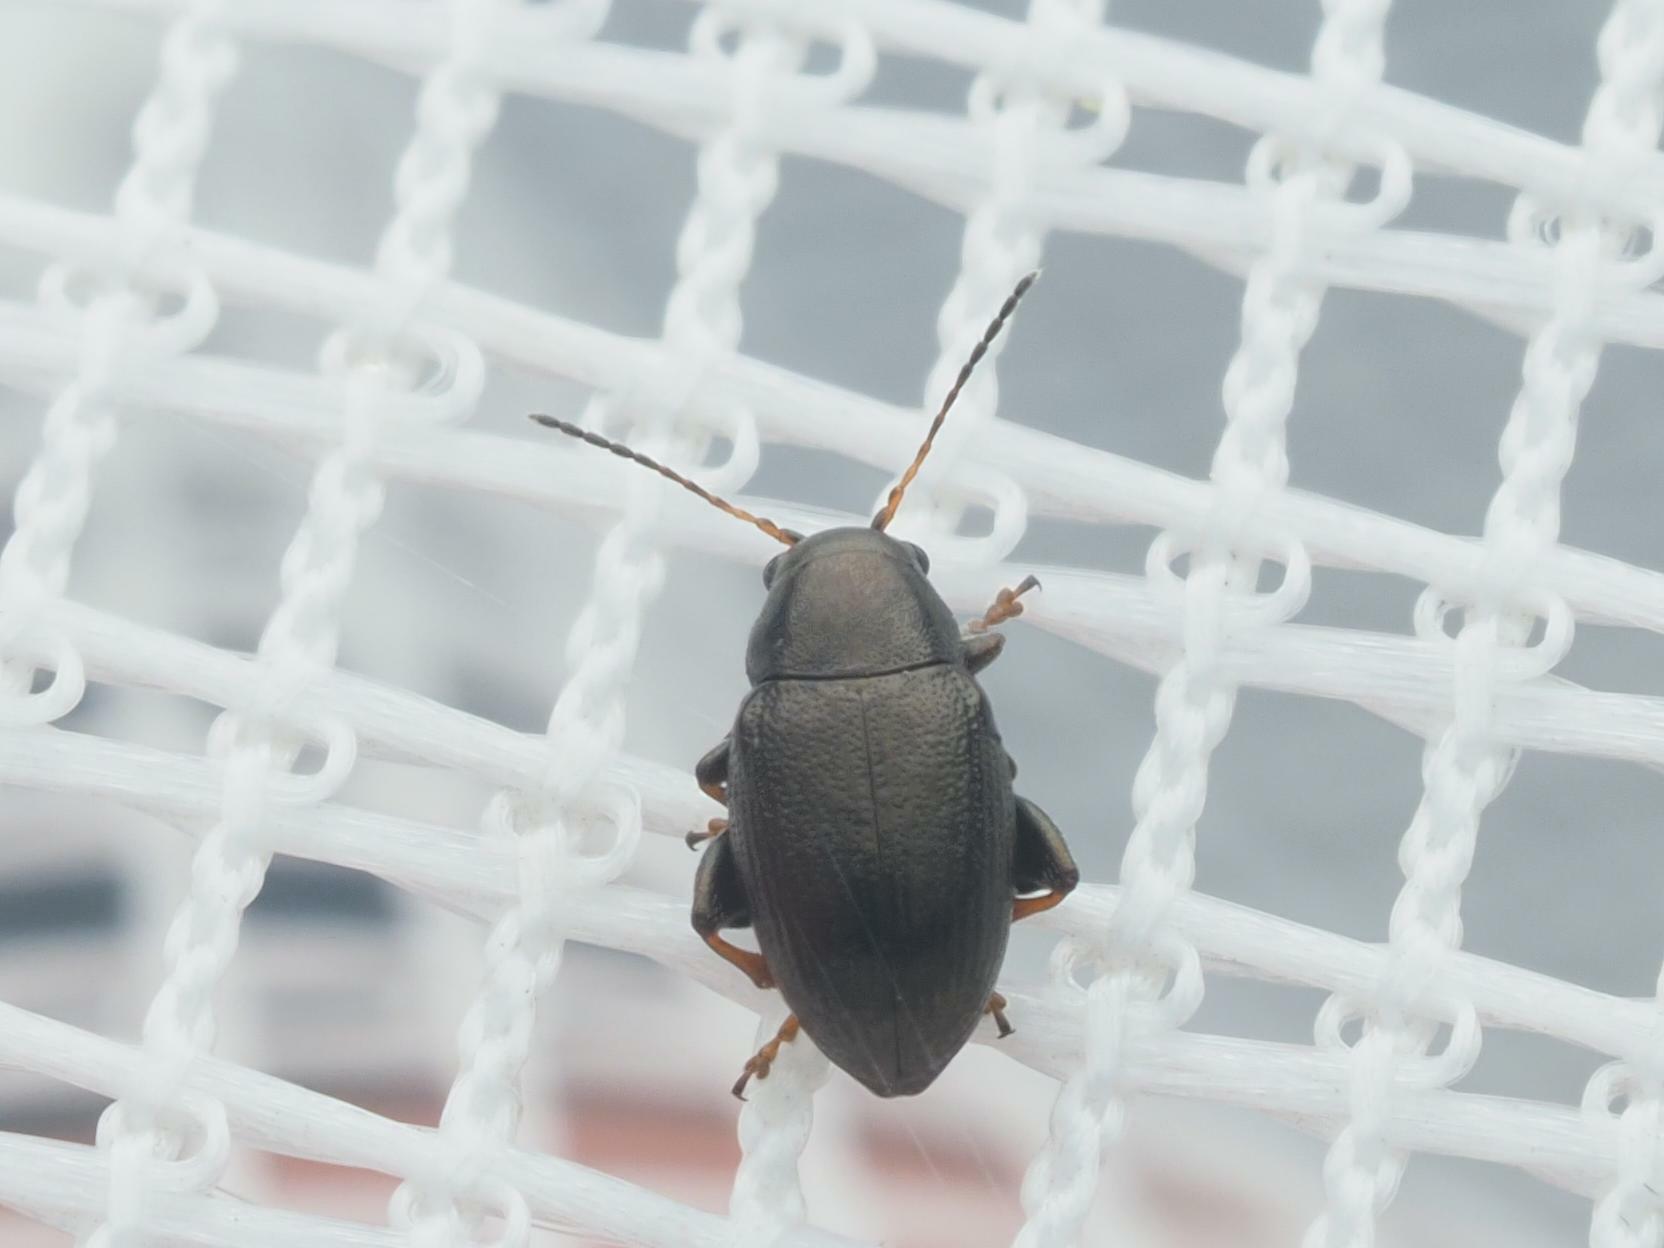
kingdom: Animalia
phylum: Arthropoda
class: Insecta
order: Coleoptera
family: Chrysomelidae
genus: Chaetocnema
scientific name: Chaetocnema hortensis
